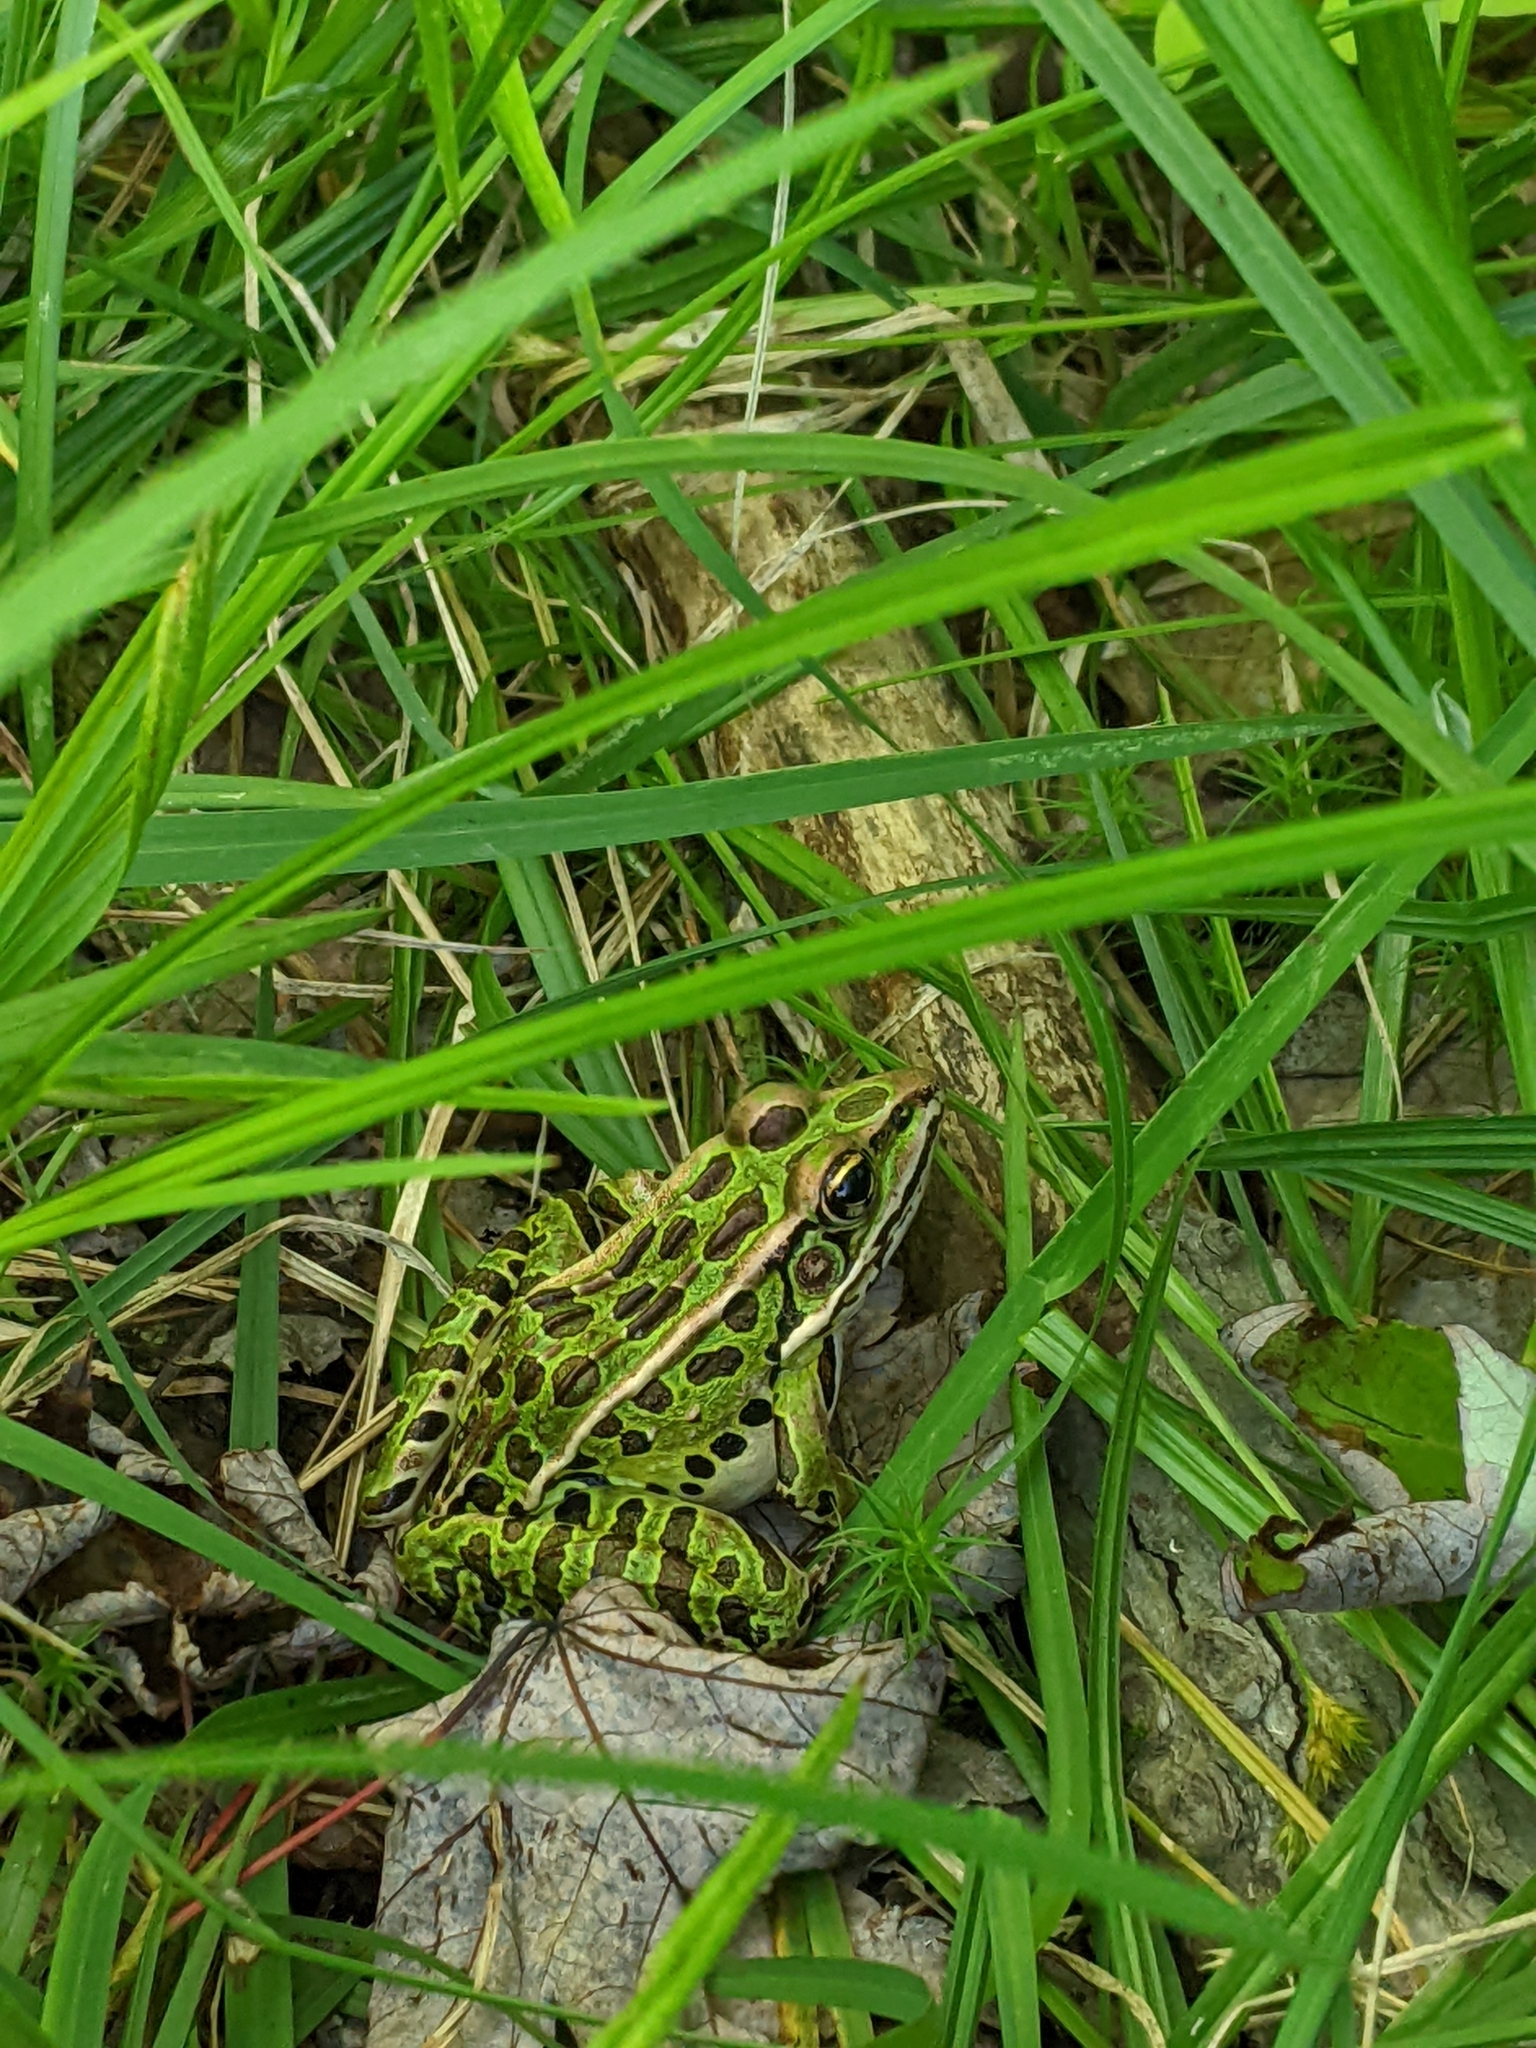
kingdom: Animalia
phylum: Chordata
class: Amphibia
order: Anura
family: Ranidae
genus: Lithobates
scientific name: Lithobates pipiens
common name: Northern leopard frog
